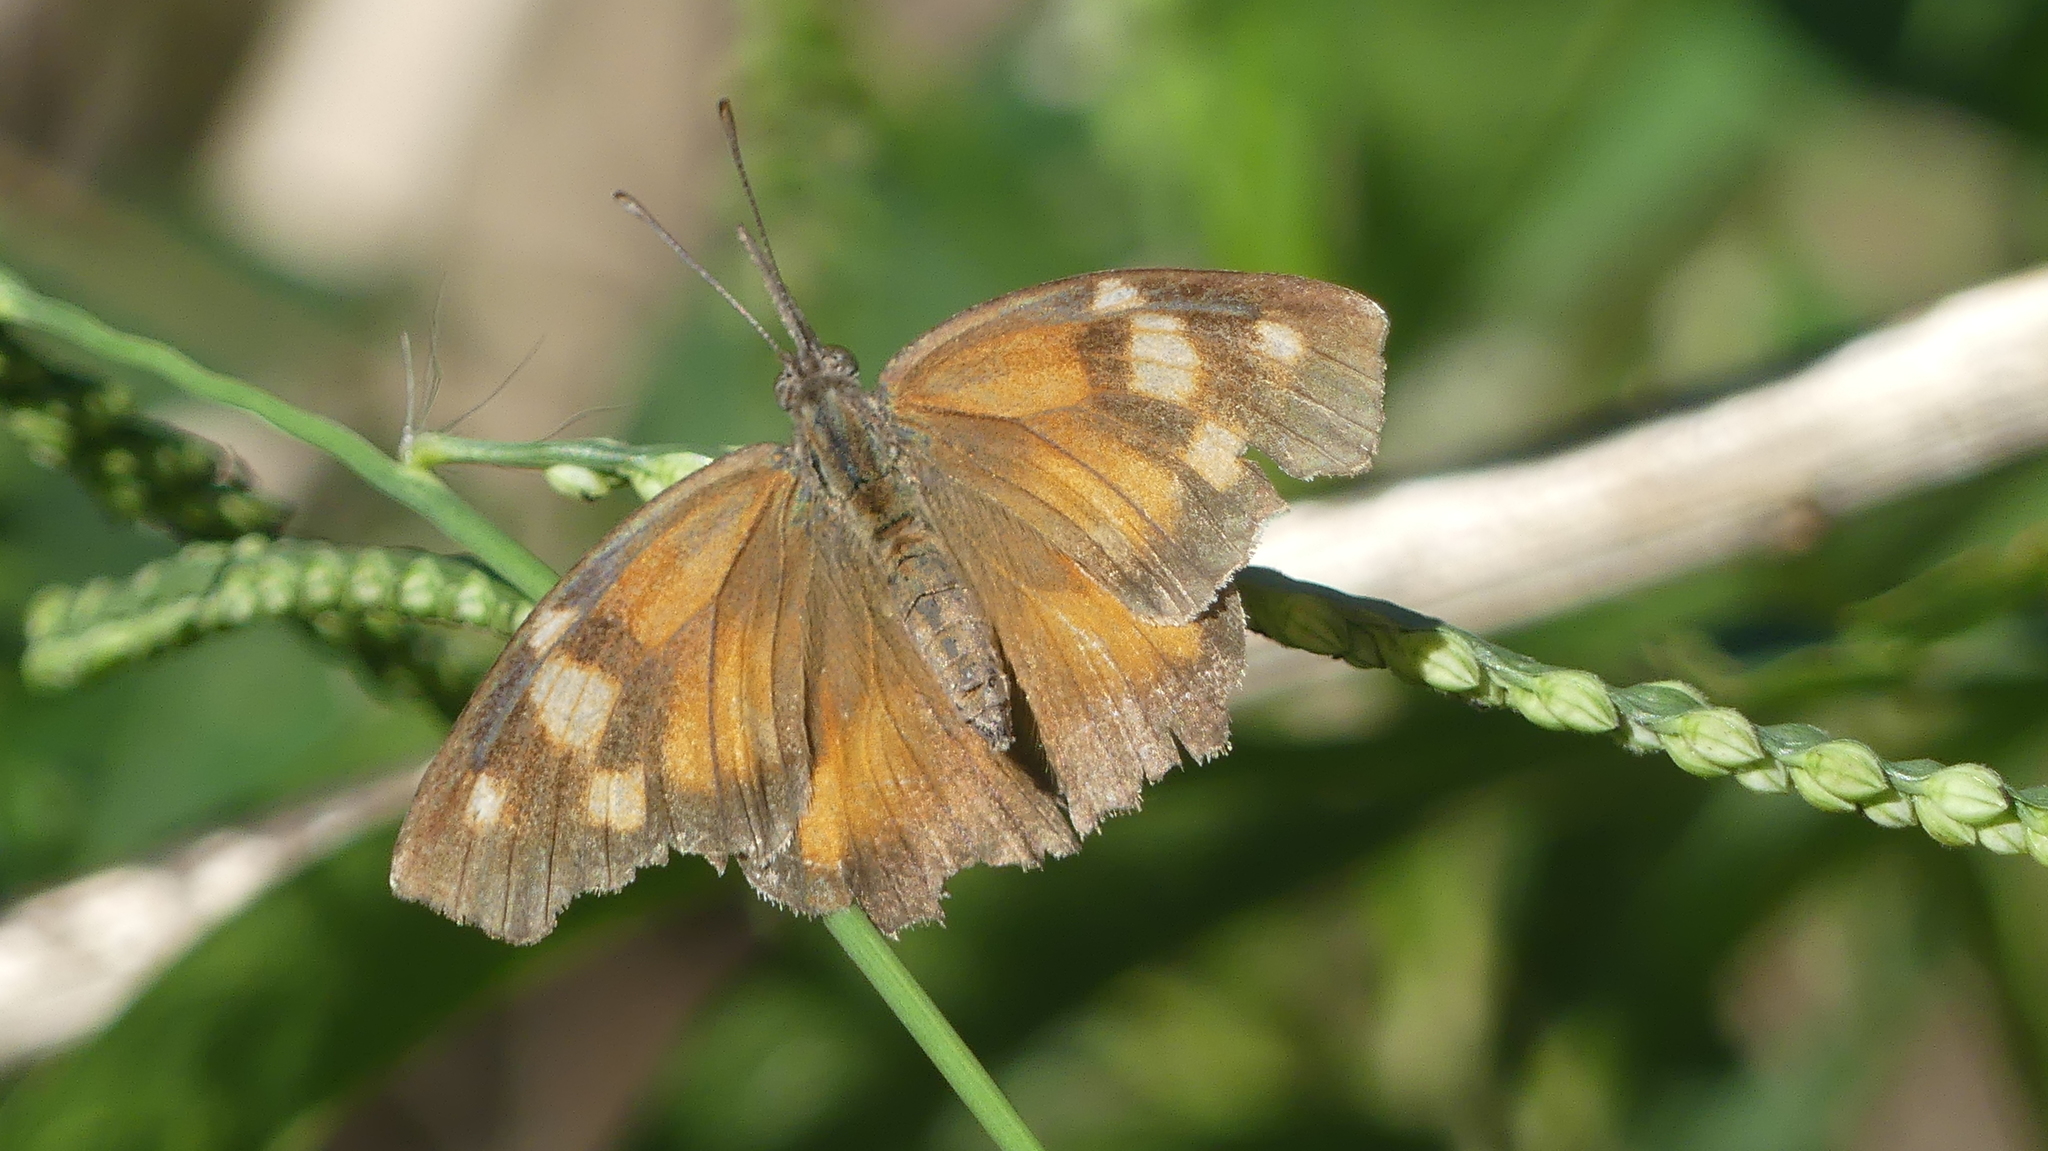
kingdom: Animalia
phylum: Arthropoda
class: Insecta
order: Lepidoptera
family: Nymphalidae
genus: Libytheana
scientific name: Libytheana carinenta
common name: American snout
